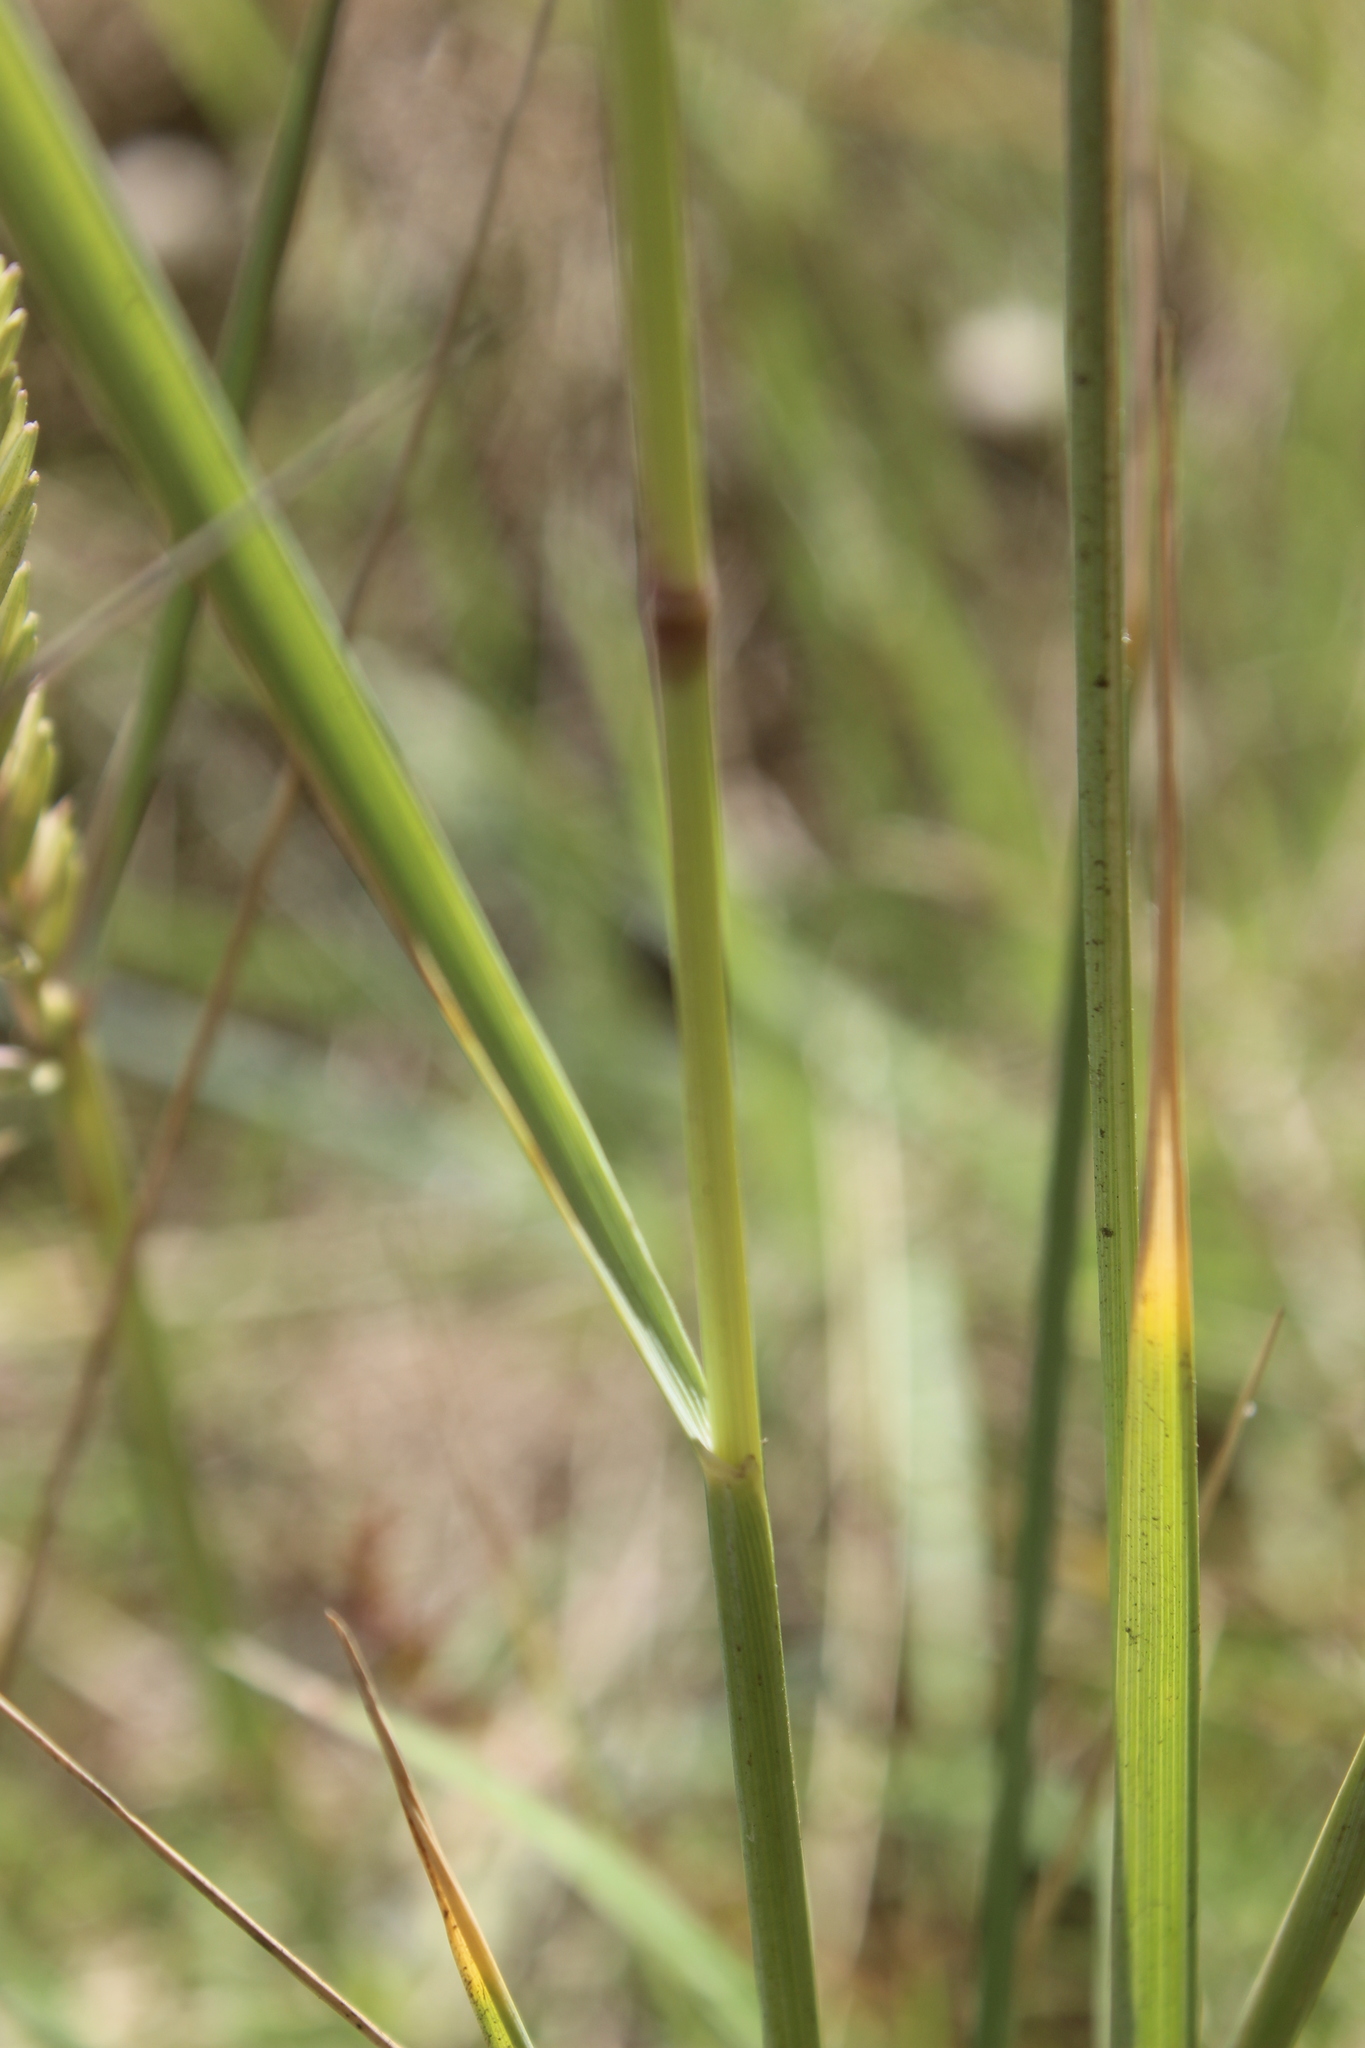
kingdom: Plantae
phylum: Tracheophyta
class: Liliopsida
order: Poales
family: Poaceae
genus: Elymus
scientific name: Elymus repens
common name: Quackgrass
